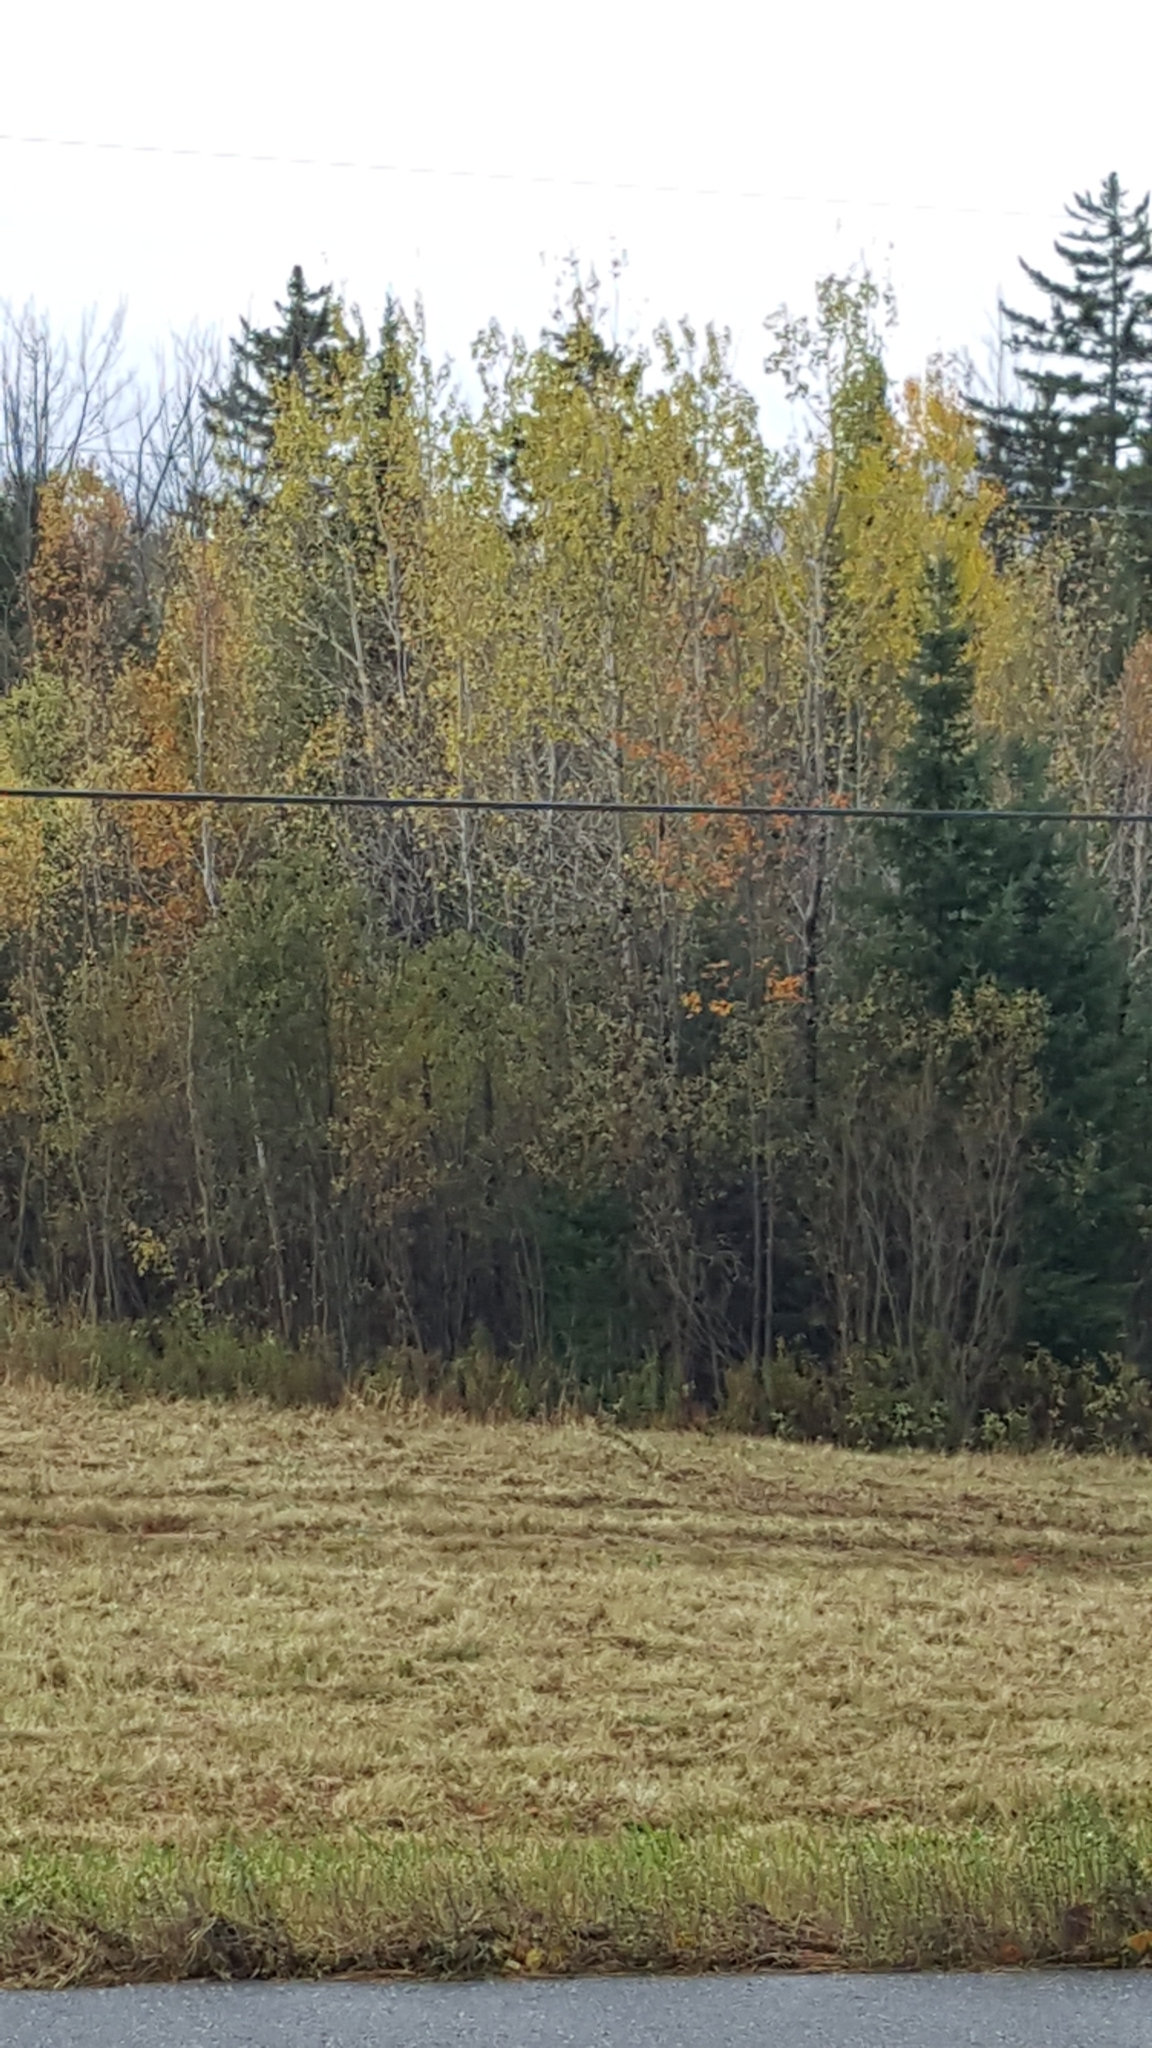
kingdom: Plantae
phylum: Tracheophyta
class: Magnoliopsida
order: Malpighiales
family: Salicaceae
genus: Populus
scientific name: Populus tremuloides
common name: Quaking aspen
